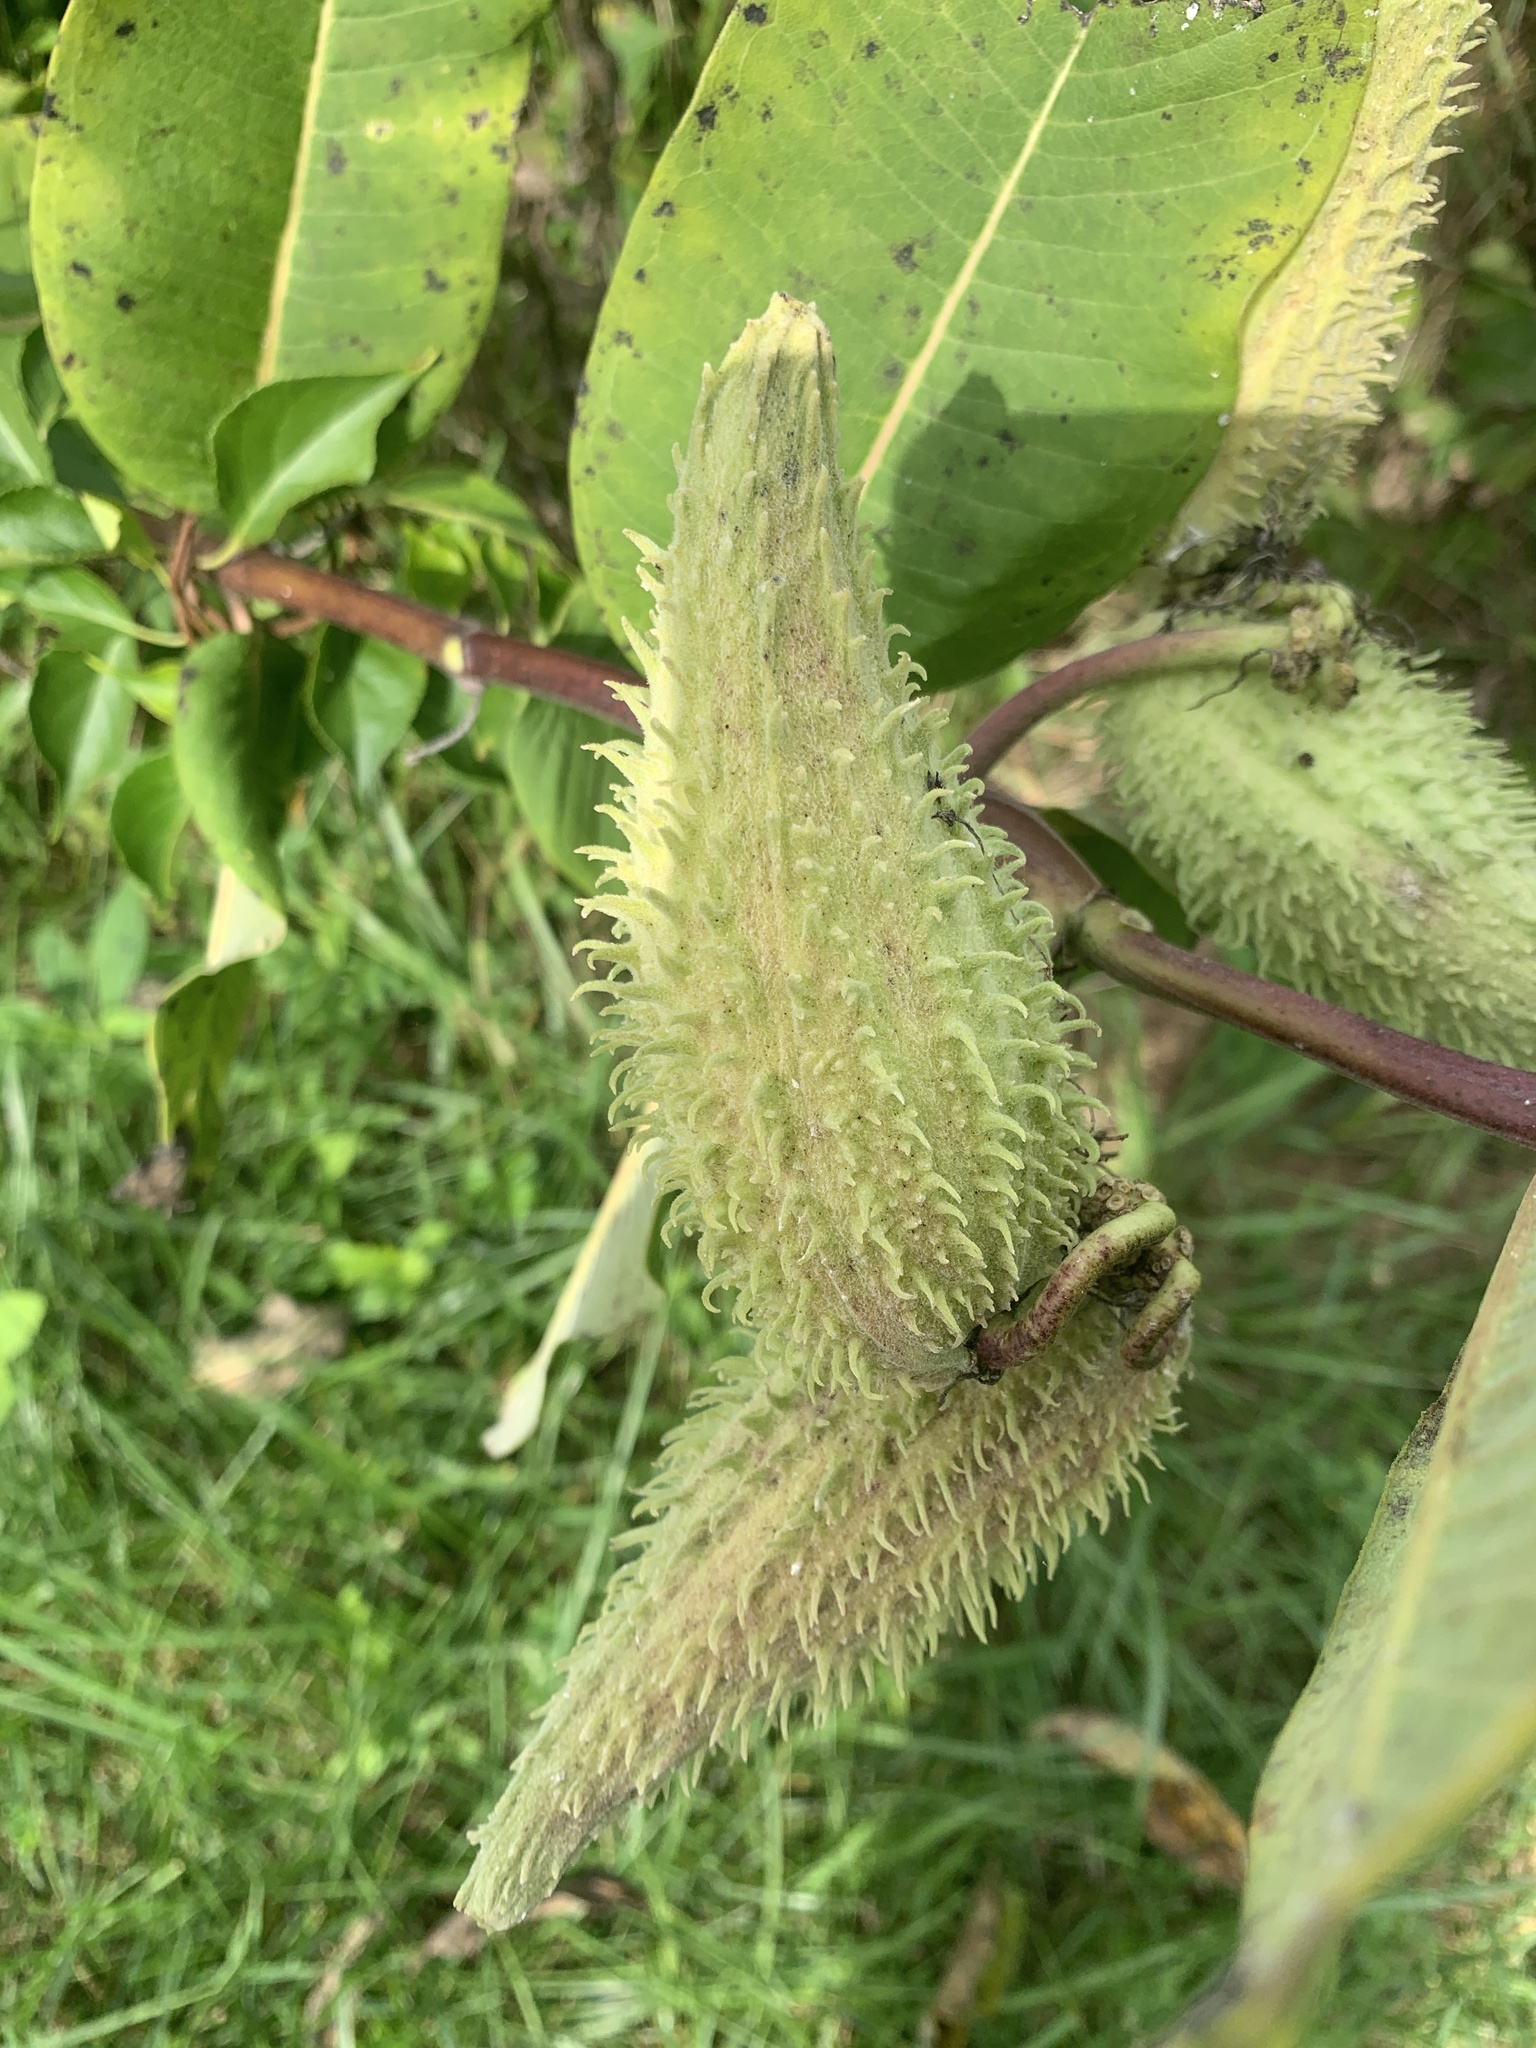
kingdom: Plantae
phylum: Tracheophyta
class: Magnoliopsida
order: Gentianales
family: Apocynaceae
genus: Asclepias
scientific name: Asclepias syriaca
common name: Common milkweed
